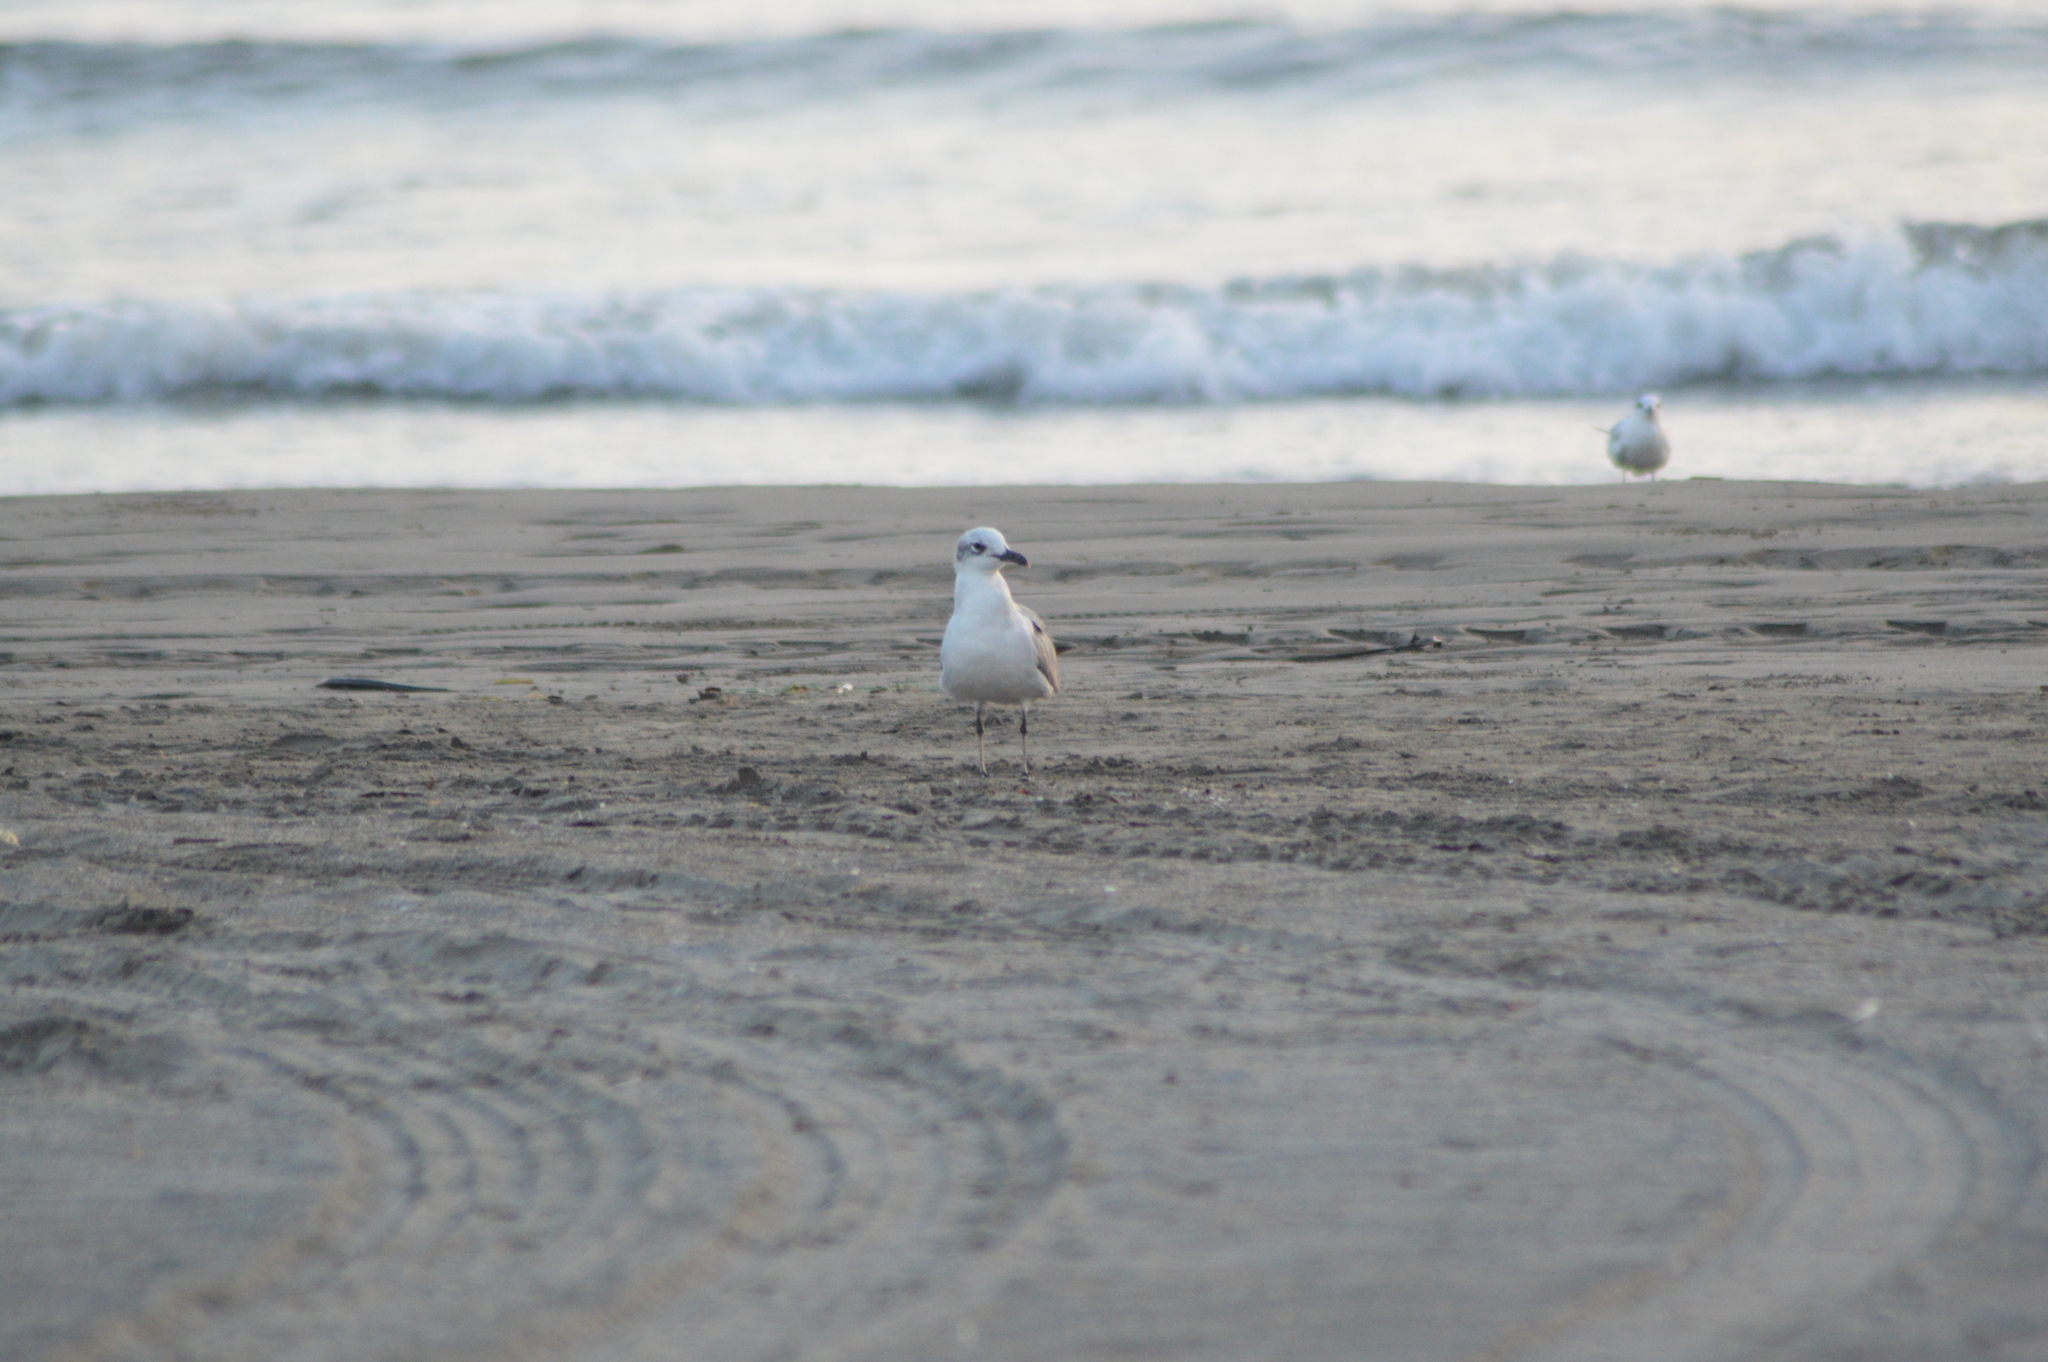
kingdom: Animalia
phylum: Chordata
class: Aves
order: Charadriiformes
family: Laridae
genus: Leucophaeus
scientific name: Leucophaeus atricilla
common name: Laughing gull
